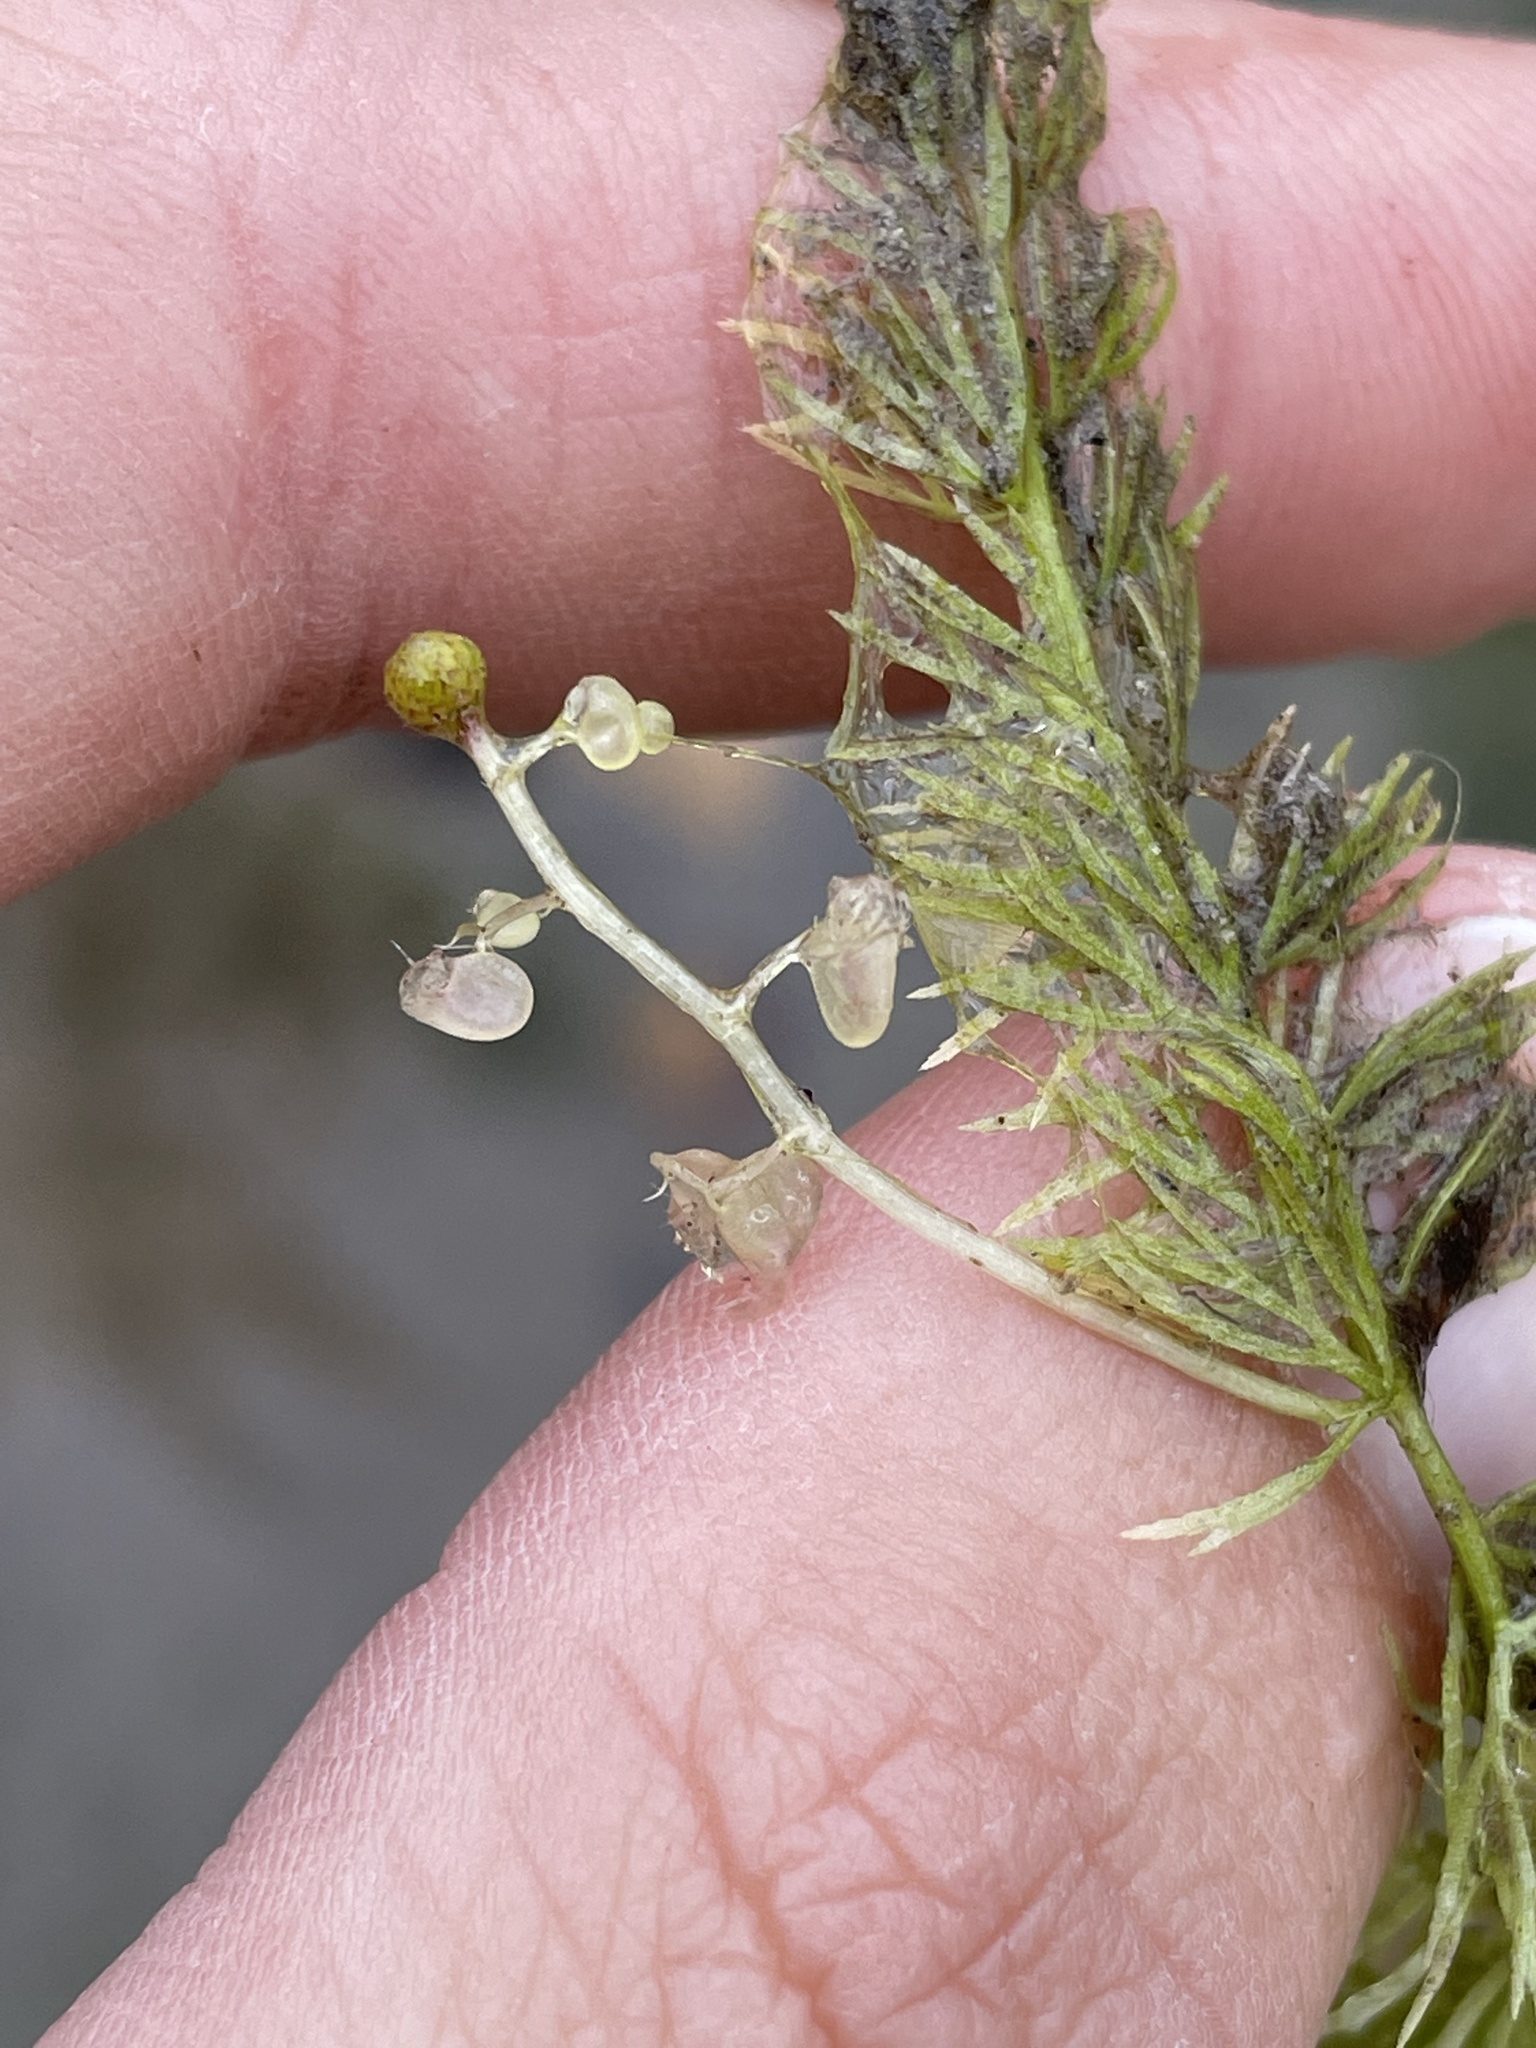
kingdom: Plantae
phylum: Tracheophyta
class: Magnoliopsida
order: Lamiales
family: Lentibulariaceae
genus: Utricularia
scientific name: Utricularia intermedia
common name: Intermediate bladderwort
